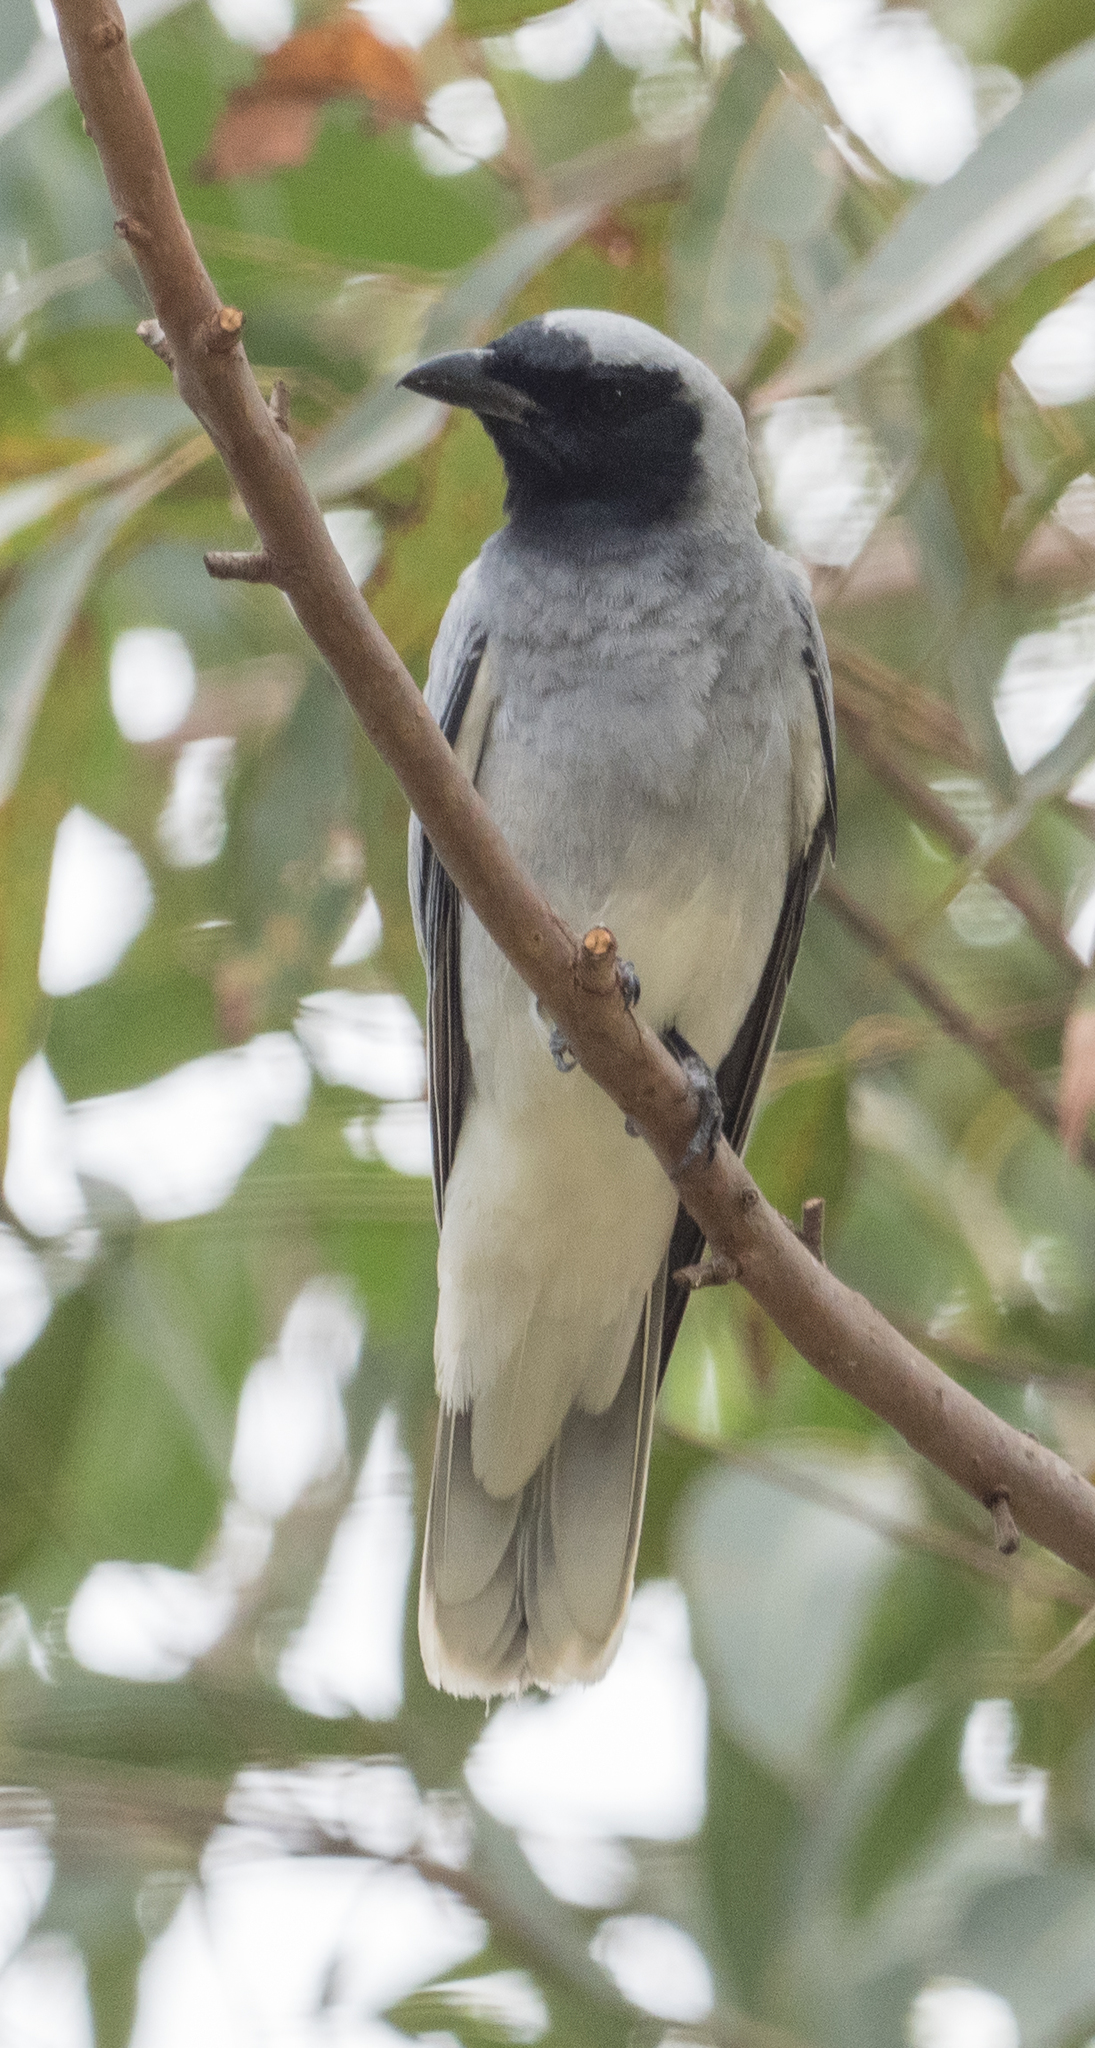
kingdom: Animalia
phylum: Chordata
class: Aves
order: Passeriformes
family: Campephagidae
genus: Coracina
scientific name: Coracina novaehollandiae
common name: Black-faced cuckooshrike
